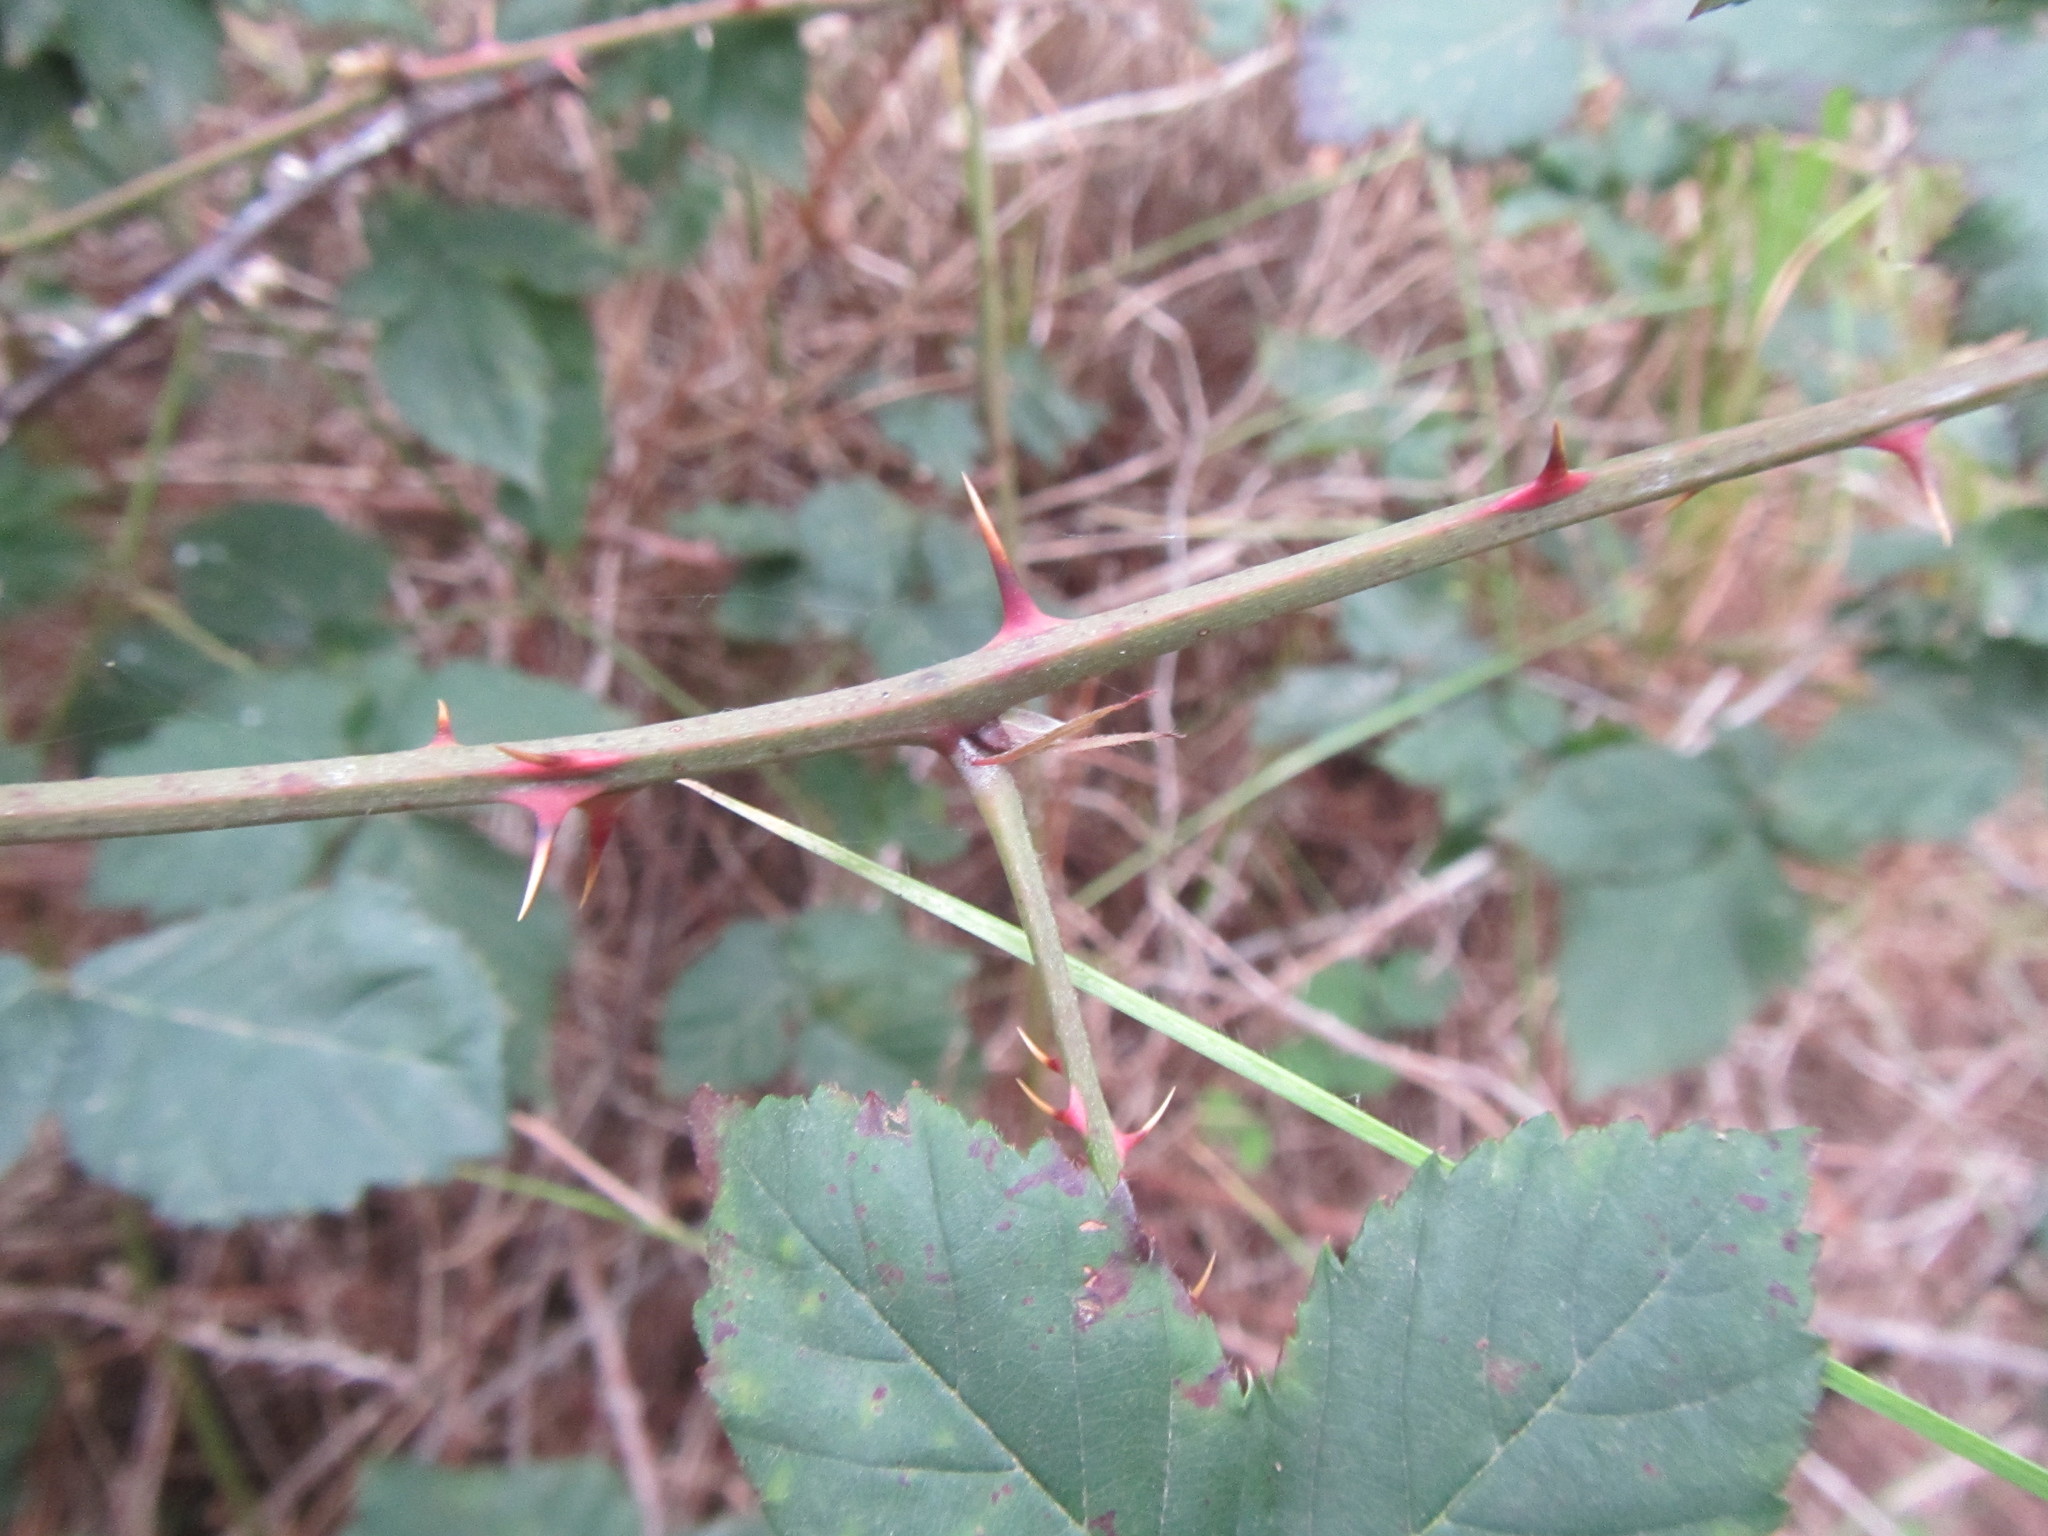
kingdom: Plantae
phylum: Tracheophyta
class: Magnoliopsida
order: Rosales
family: Rosaceae
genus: Rubus
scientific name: Rubus affinis
